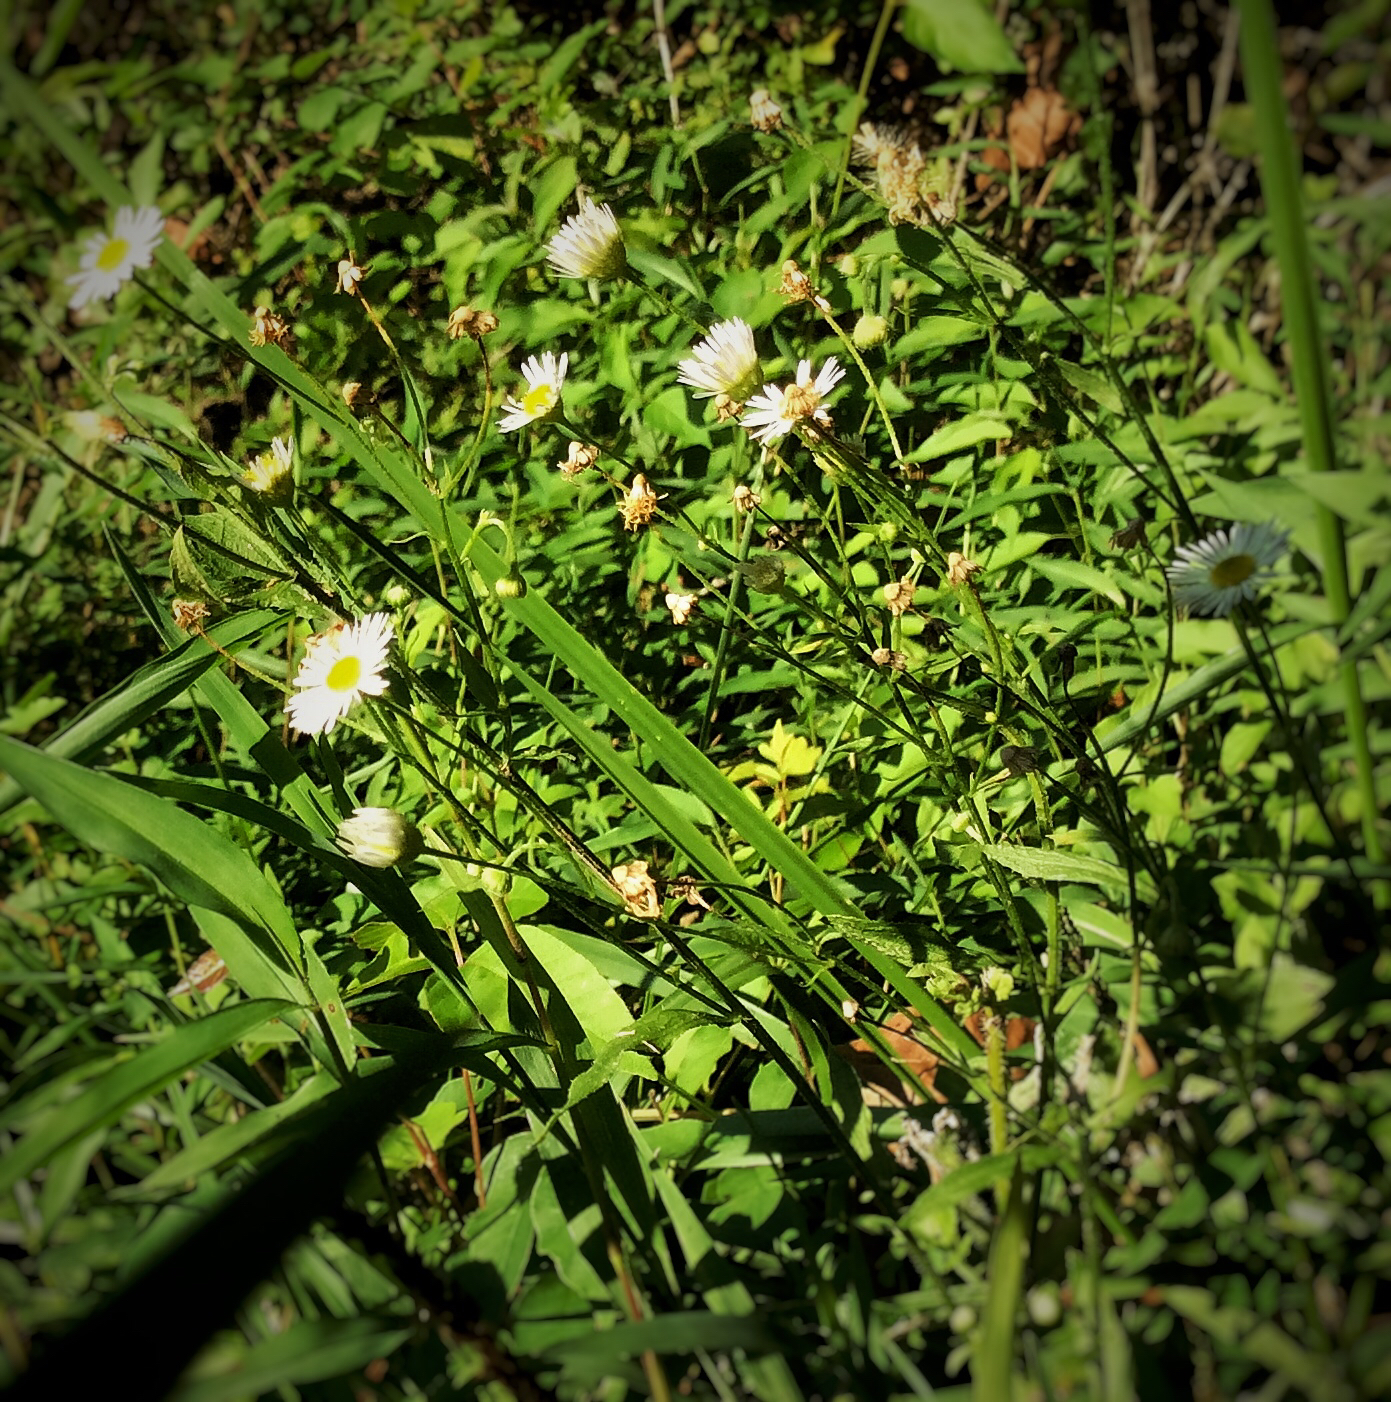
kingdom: Plantae
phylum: Tracheophyta
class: Magnoliopsida
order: Asterales
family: Asteraceae
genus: Erigeron
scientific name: Erigeron strigosus
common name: Common eastern fleabane
